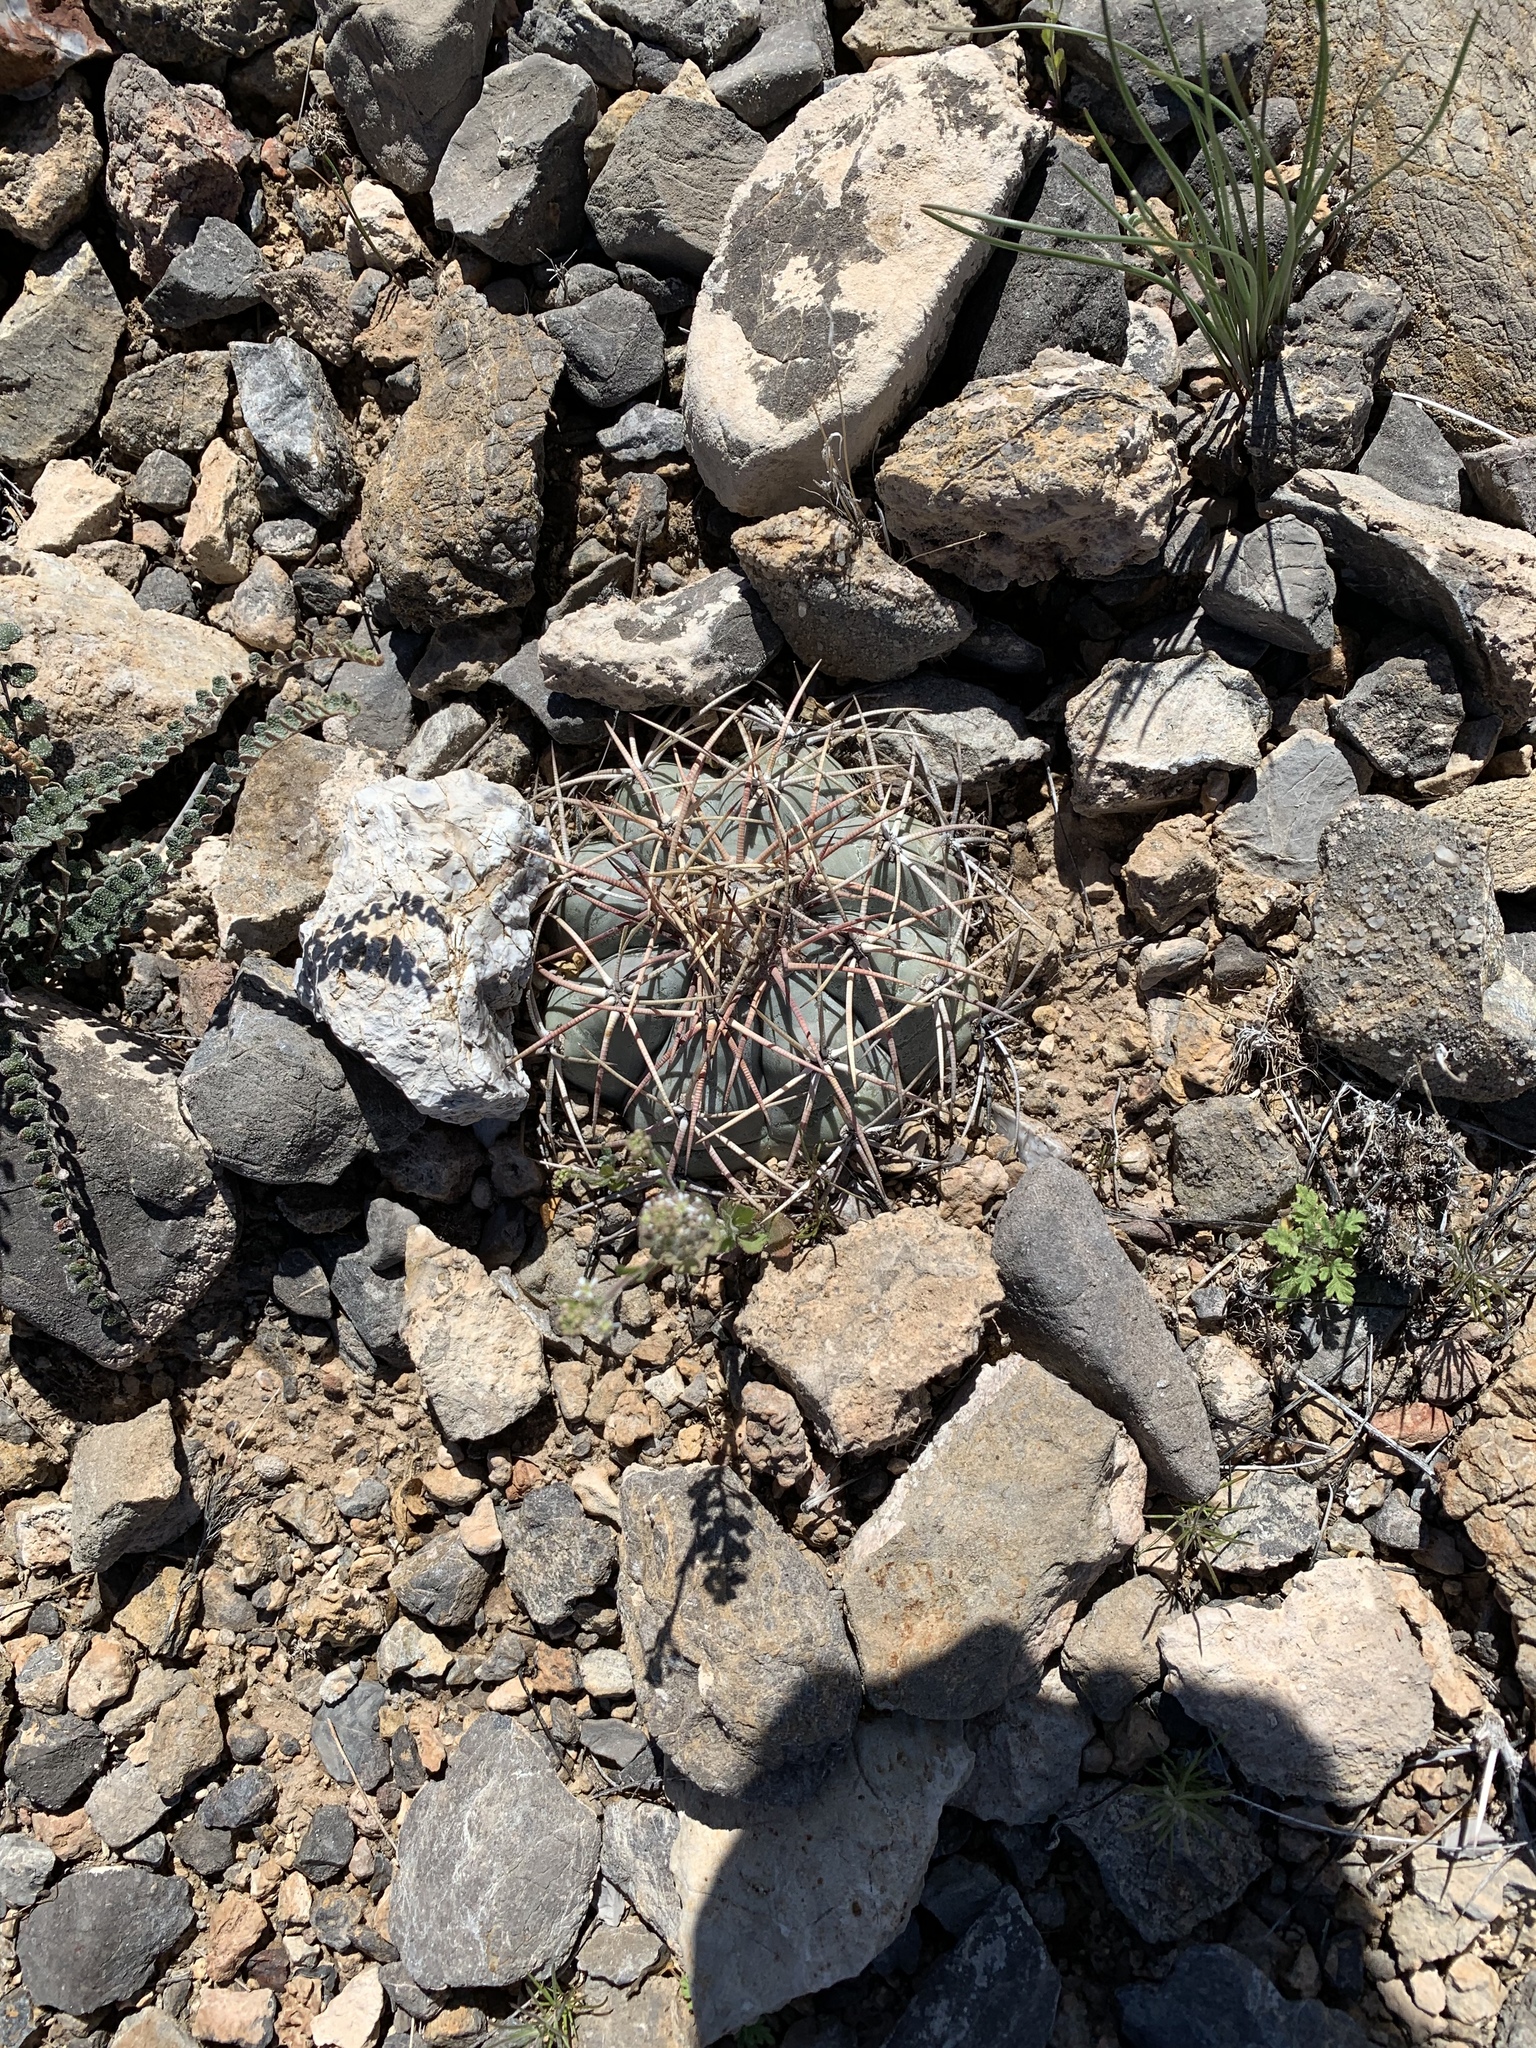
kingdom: Plantae
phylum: Tracheophyta
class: Magnoliopsida
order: Caryophyllales
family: Cactaceae
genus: Echinocactus
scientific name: Echinocactus horizonthalonius
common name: Devilshead
